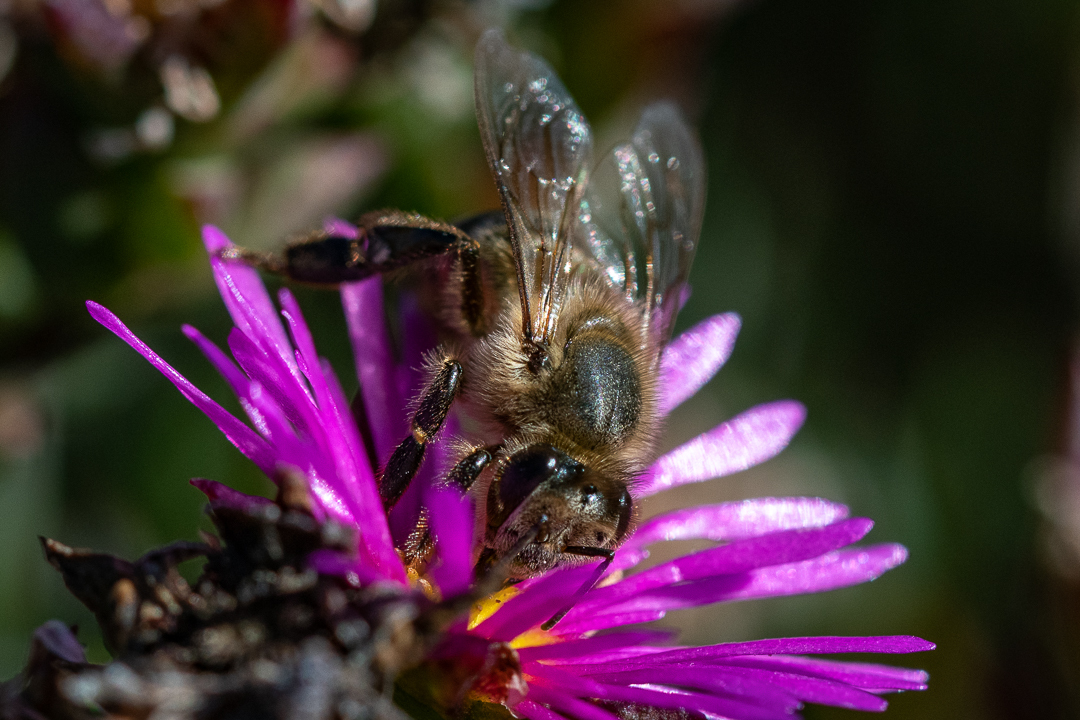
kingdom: Animalia
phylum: Arthropoda
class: Insecta
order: Hymenoptera
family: Apidae
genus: Apis
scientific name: Apis mellifera
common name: Honey bee
